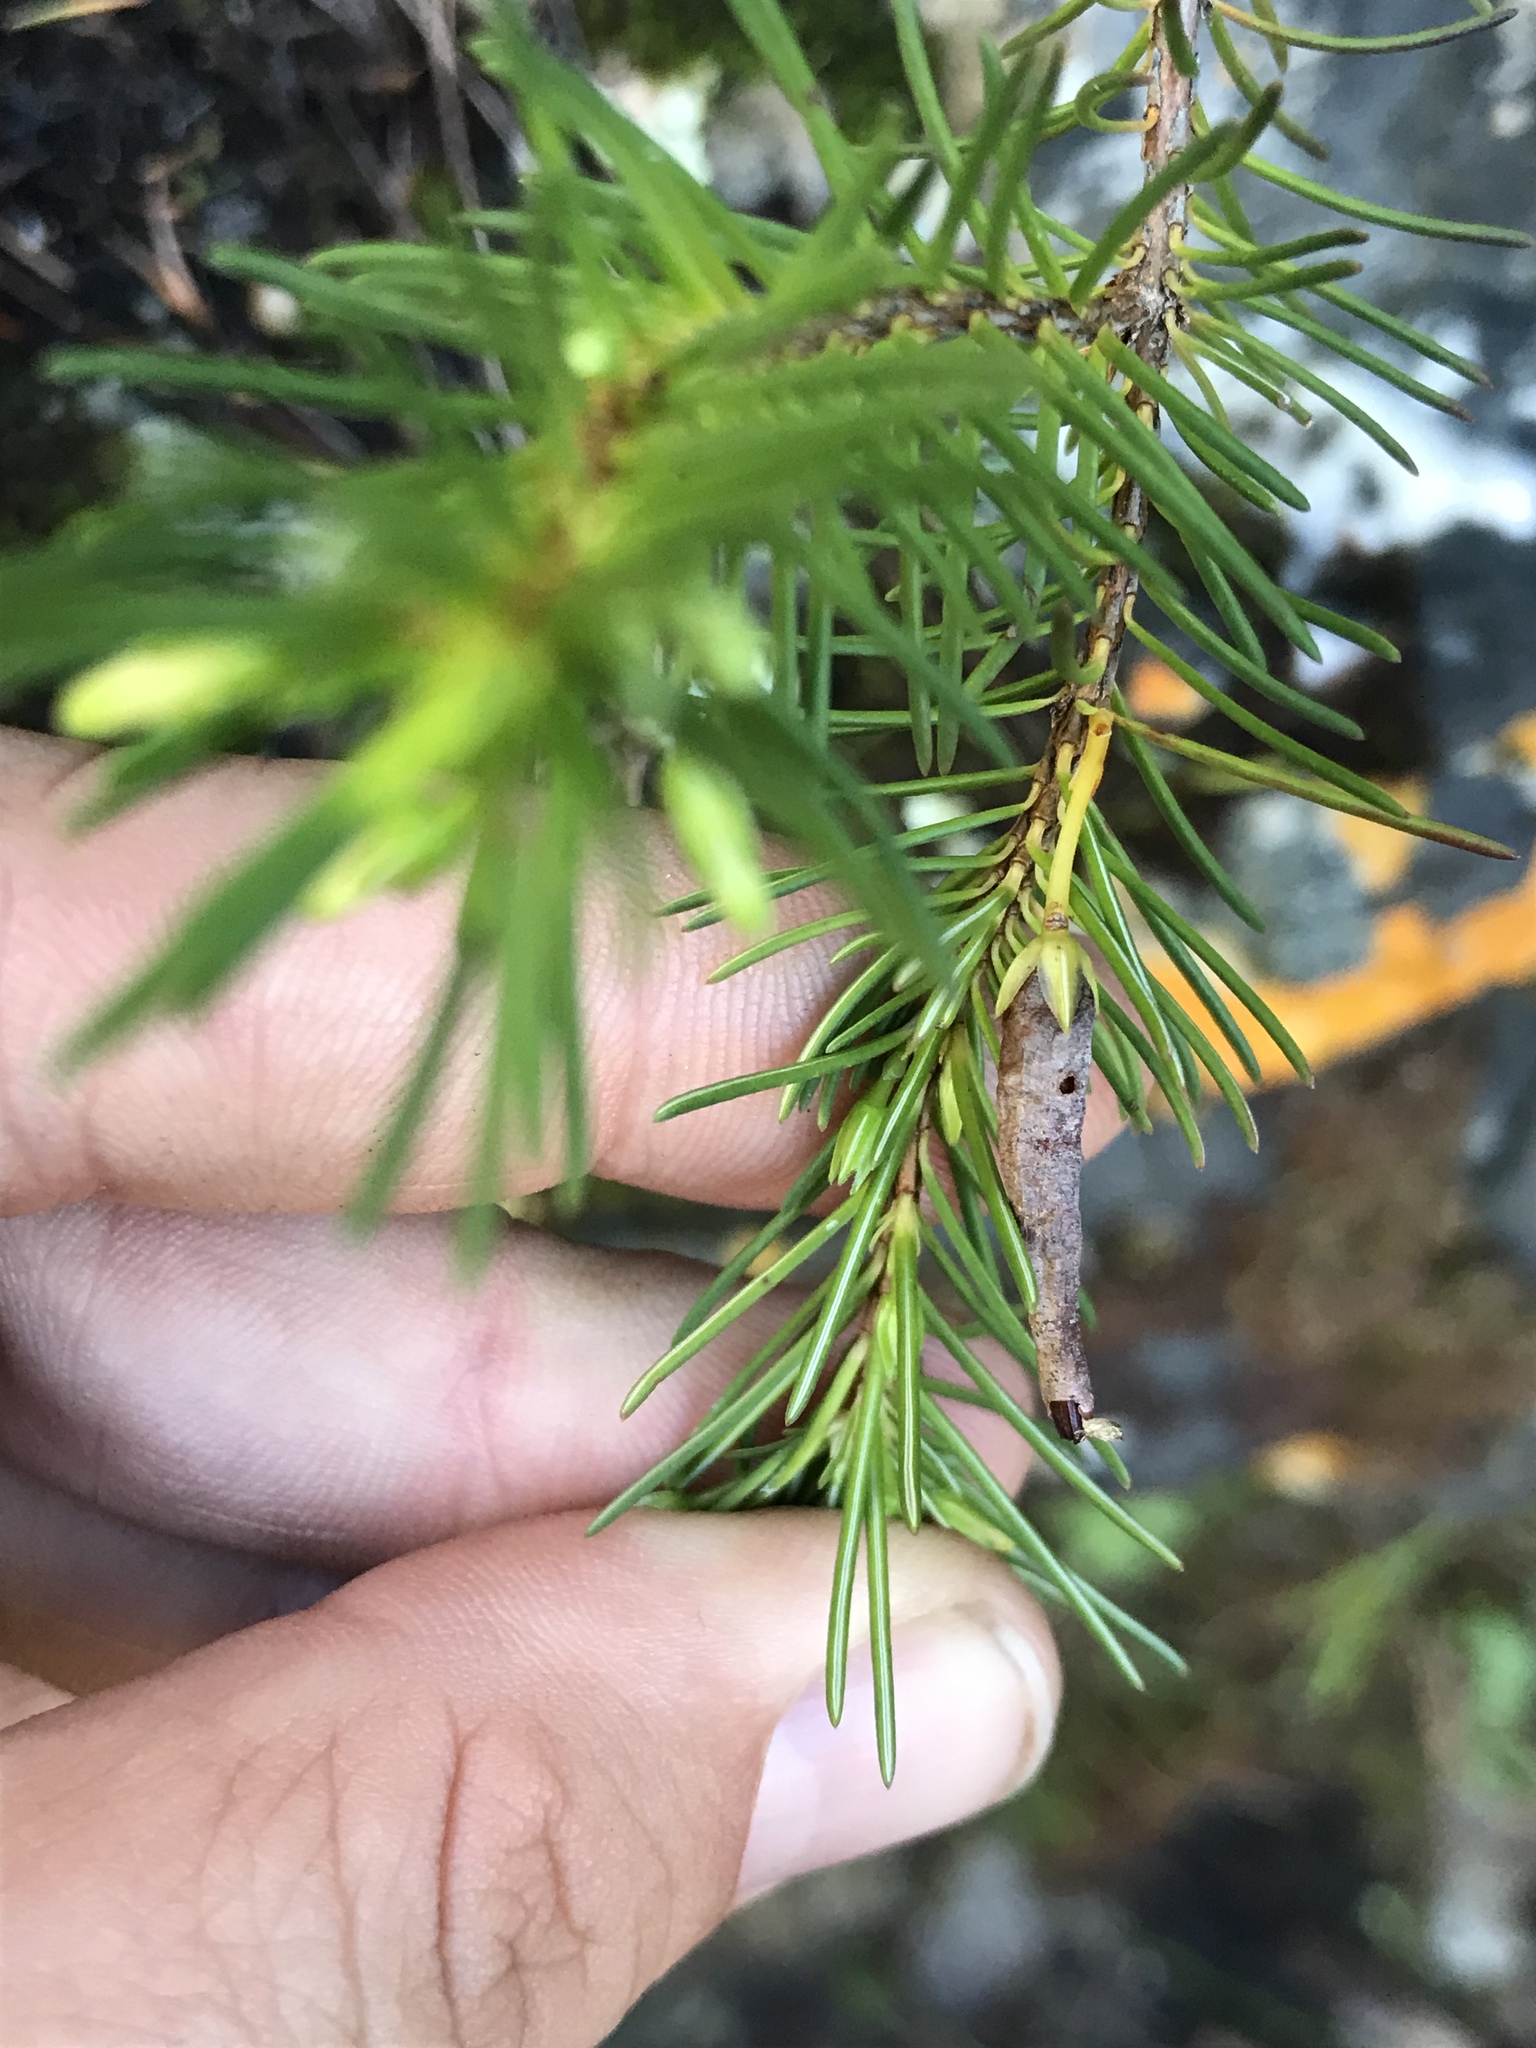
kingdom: Plantae
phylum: Tracheophyta
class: Magnoliopsida
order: Ericales
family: Ericaceae
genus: Erica
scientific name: Erica plukenetii
